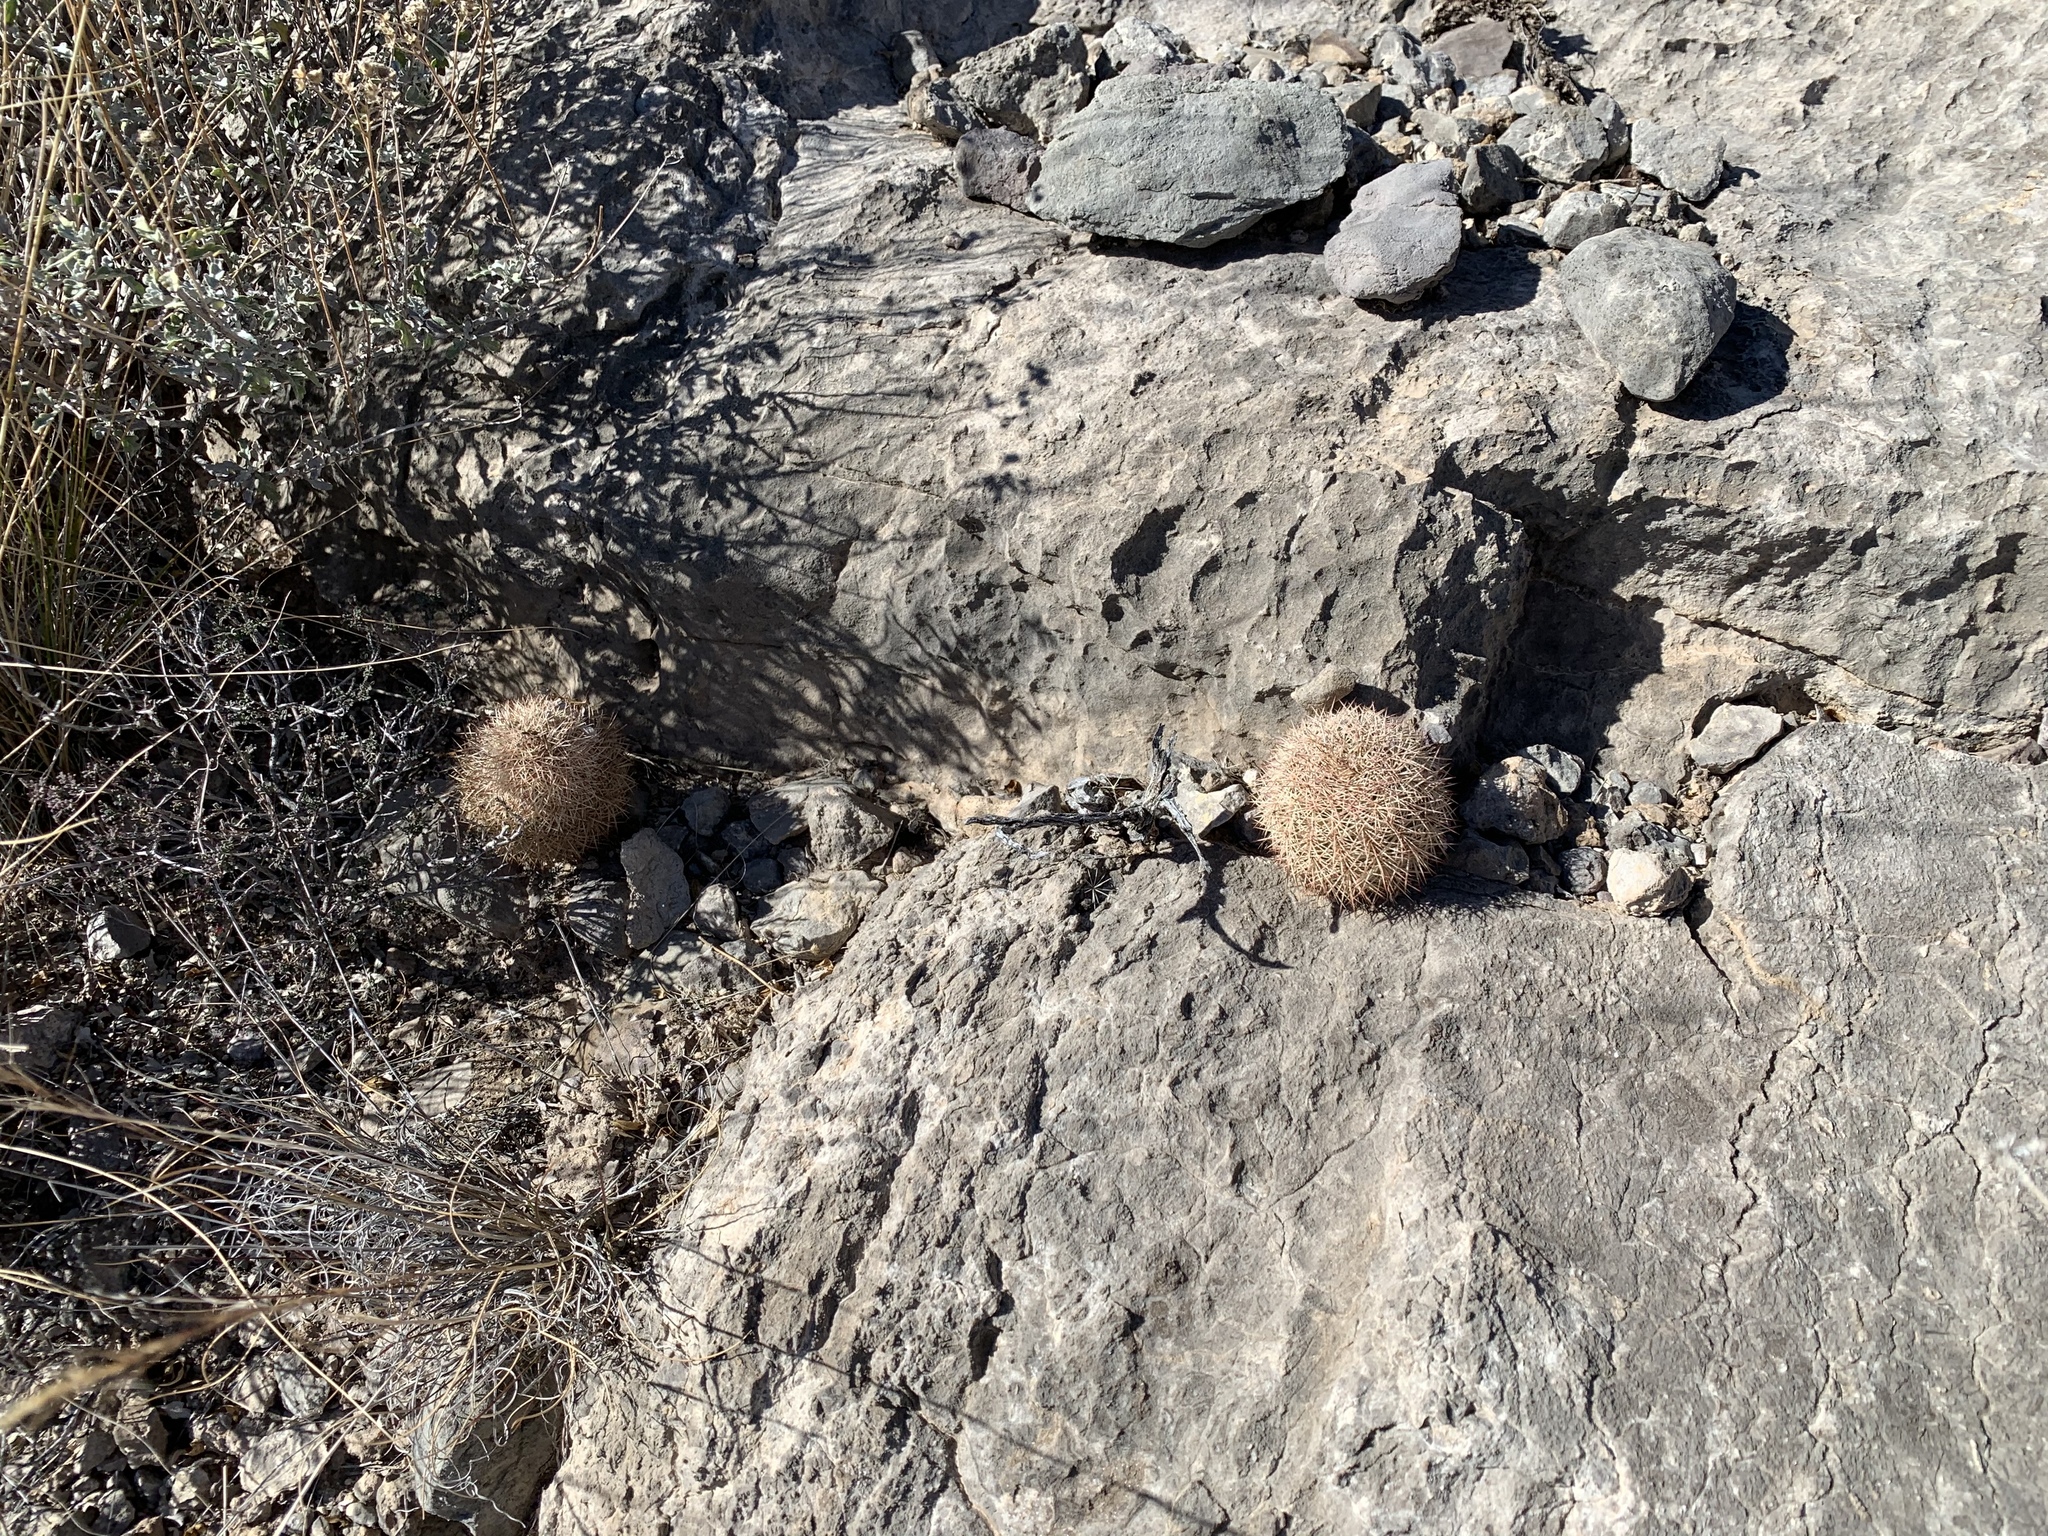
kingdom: Plantae
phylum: Tracheophyta
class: Magnoliopsida
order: Caryophyllales
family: Cactaceae
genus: Echinocereus
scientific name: Echinocereus dasyacanthus
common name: Spiny hedgehog cactus
